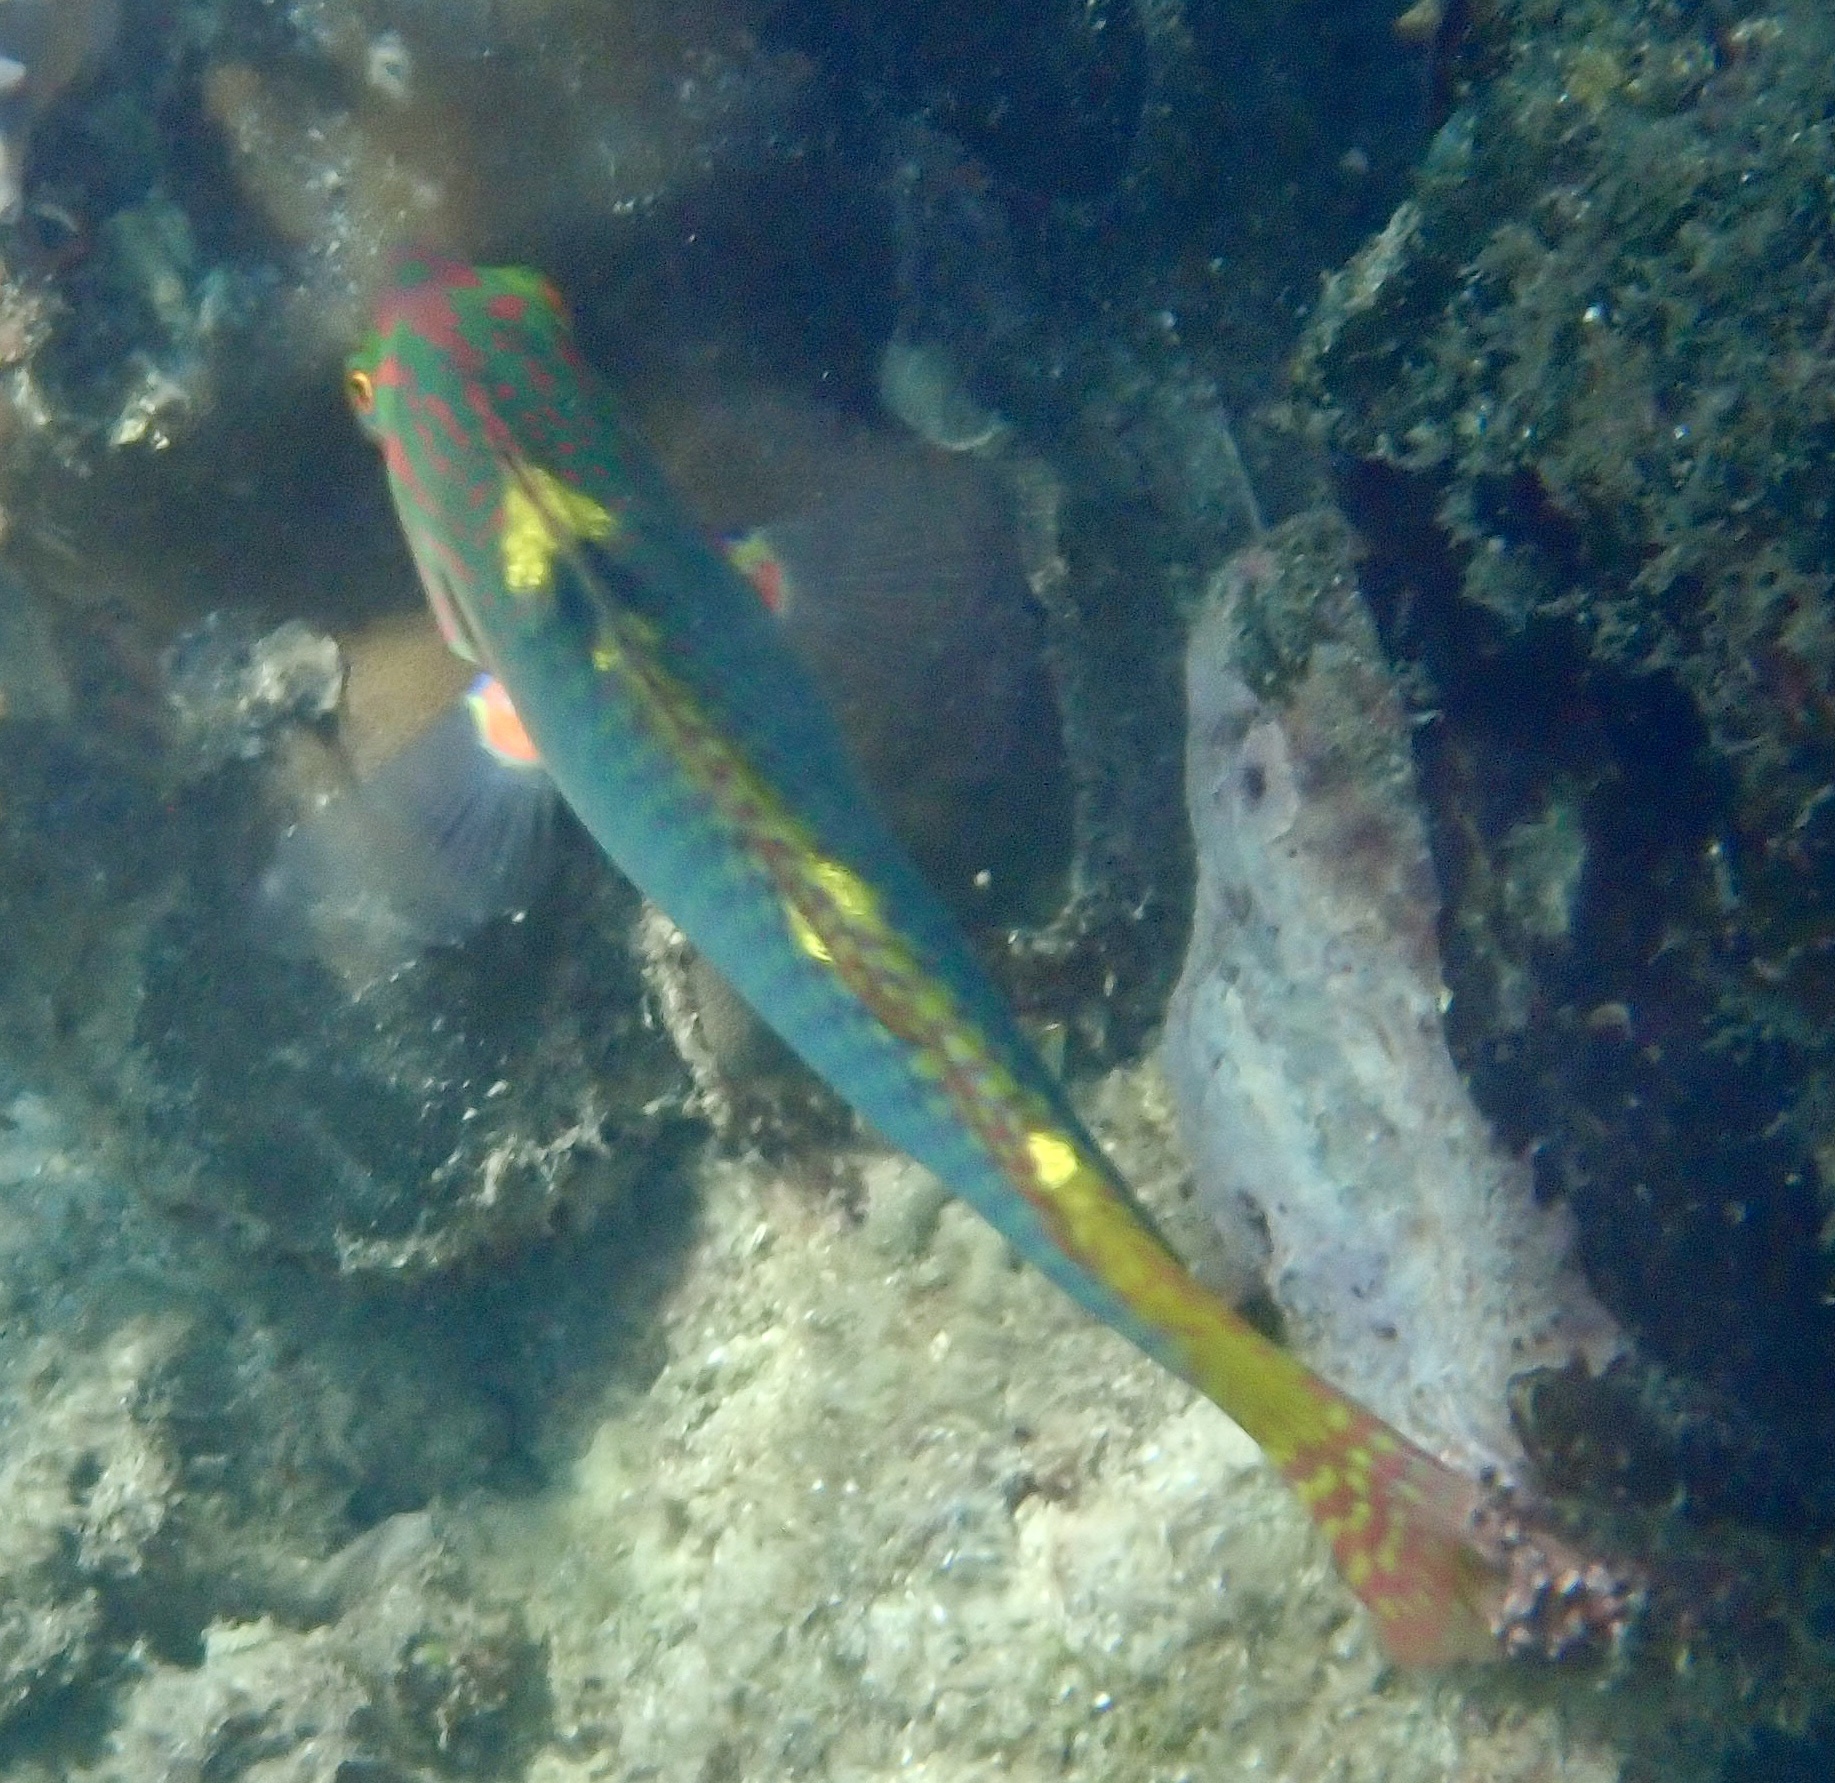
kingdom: Animalia
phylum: Chordata
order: Perciformes
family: Labridae
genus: Halichoeres
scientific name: Halichoeres hortulanus
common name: Checkerboard wrasse
